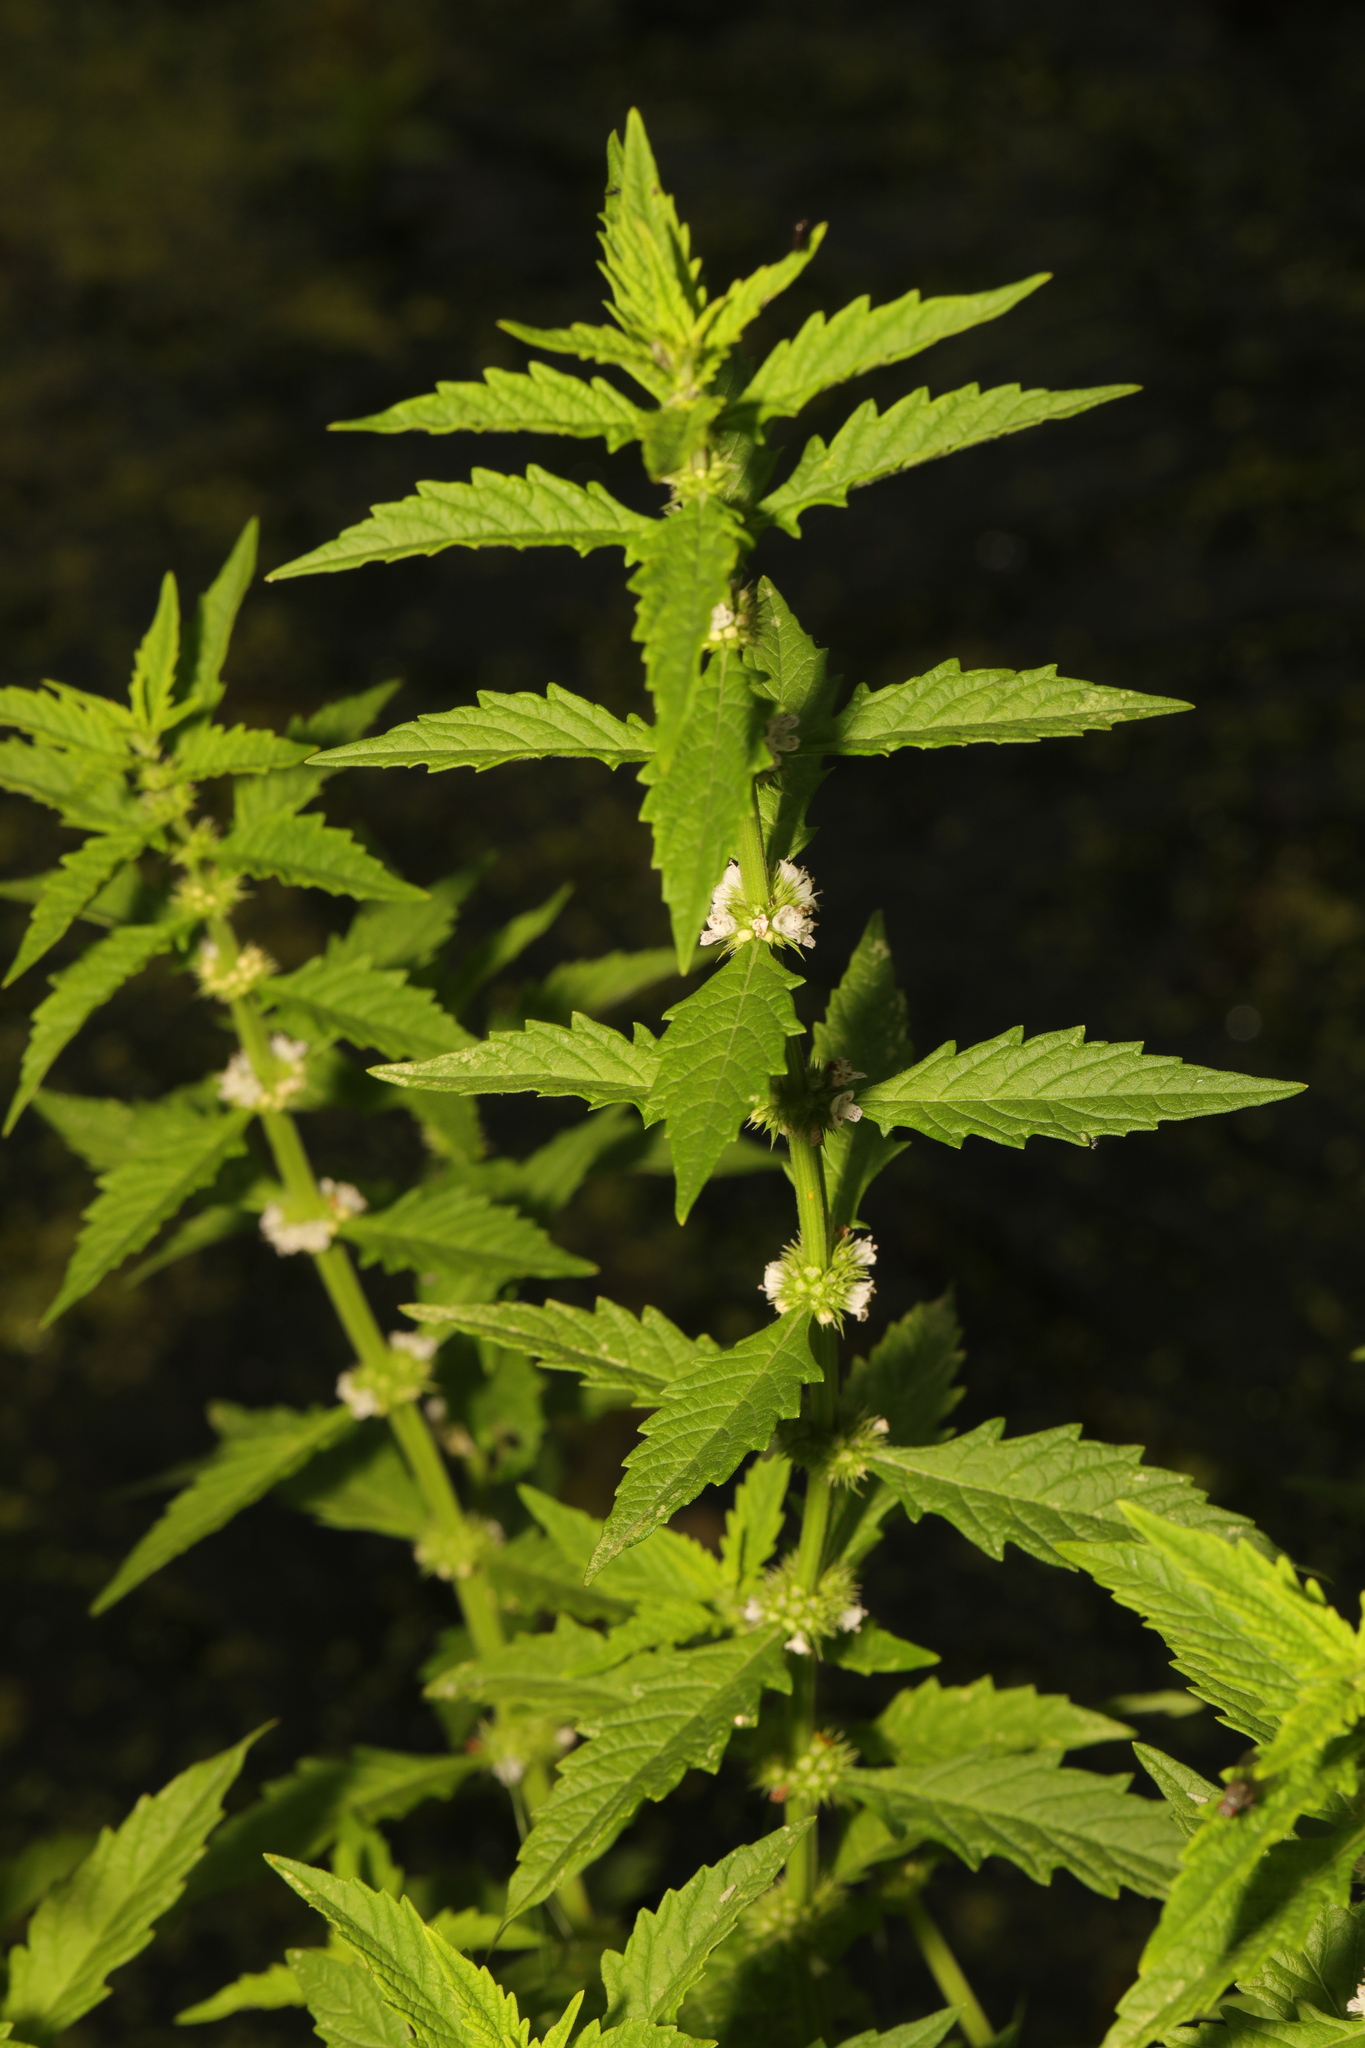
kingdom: Plantae
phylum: Tracheophyta
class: Magnoliopsida
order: Lamiales
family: Lamiaceae
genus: Lycopus
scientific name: Lycopus europaeus
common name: European bugleweed
